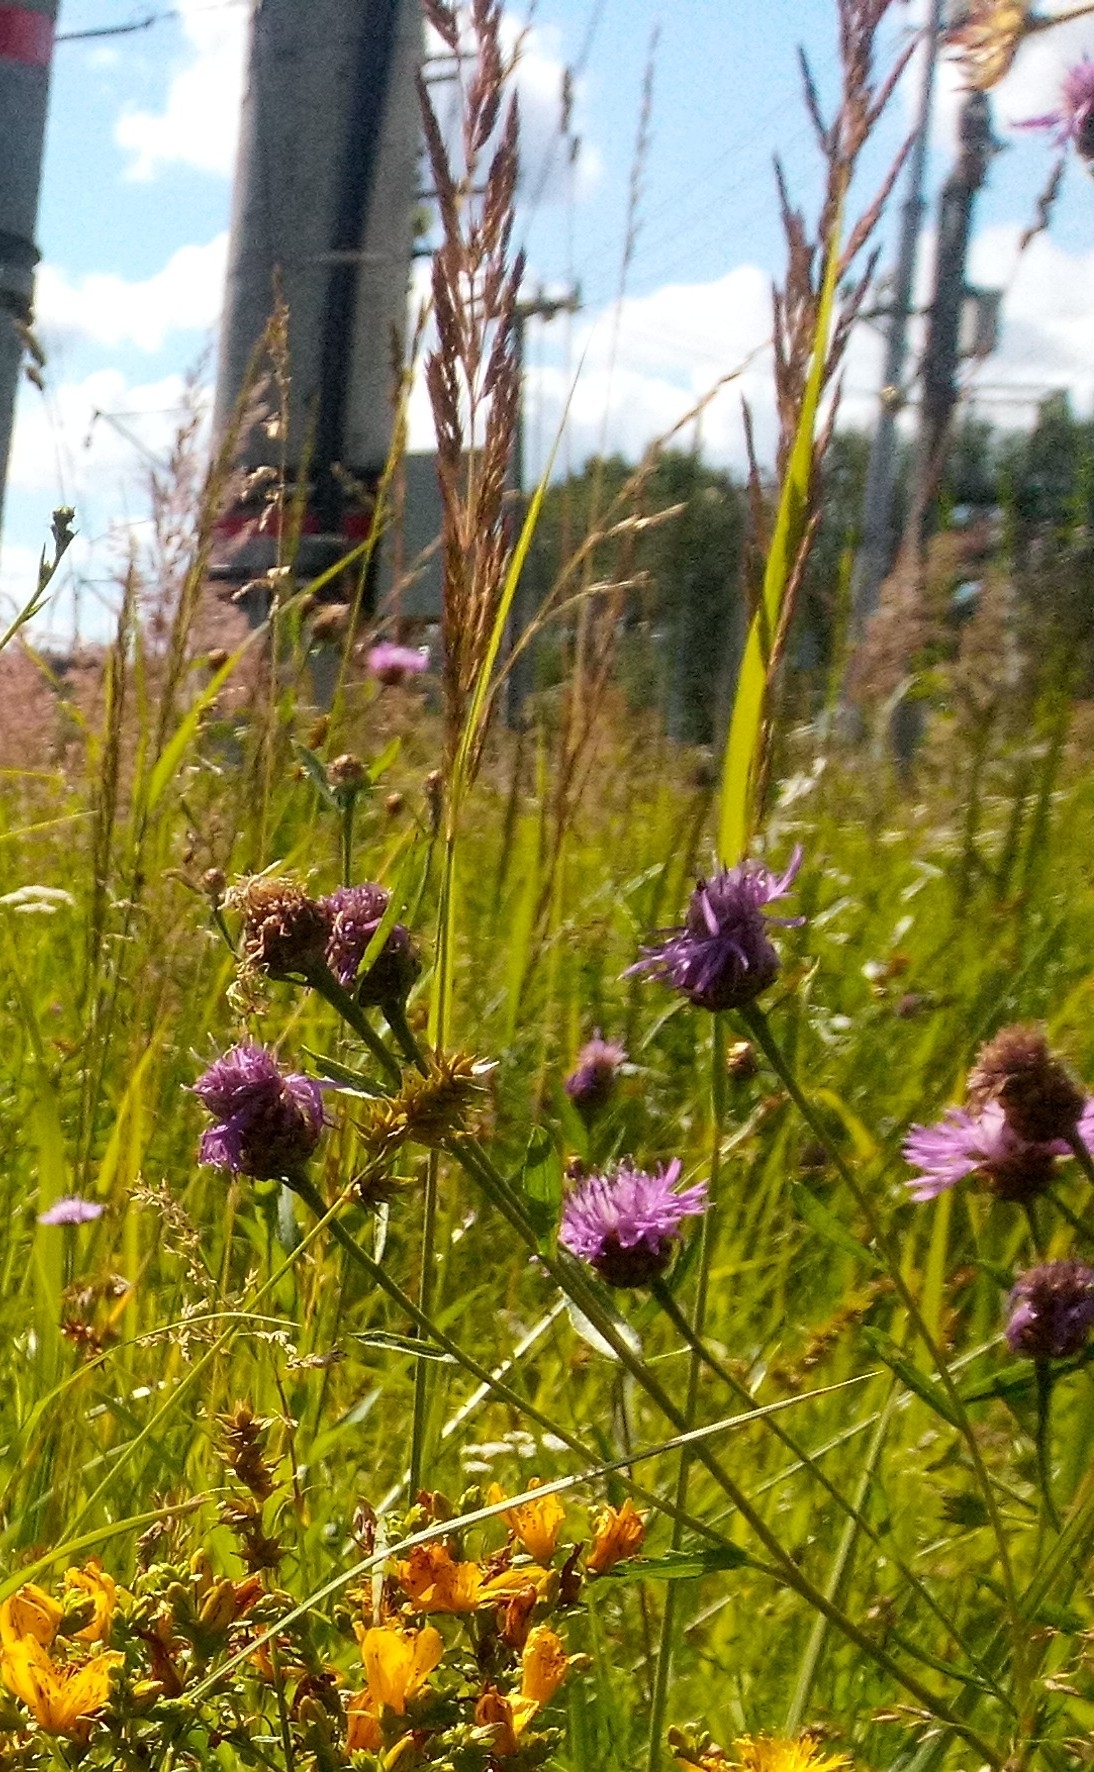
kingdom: Plantae
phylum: Tracheophyta
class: Magnoliopsida
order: Asterales
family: Asteraceae
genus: Centaurea
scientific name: Centaurea jacea
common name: Brown knapweed
